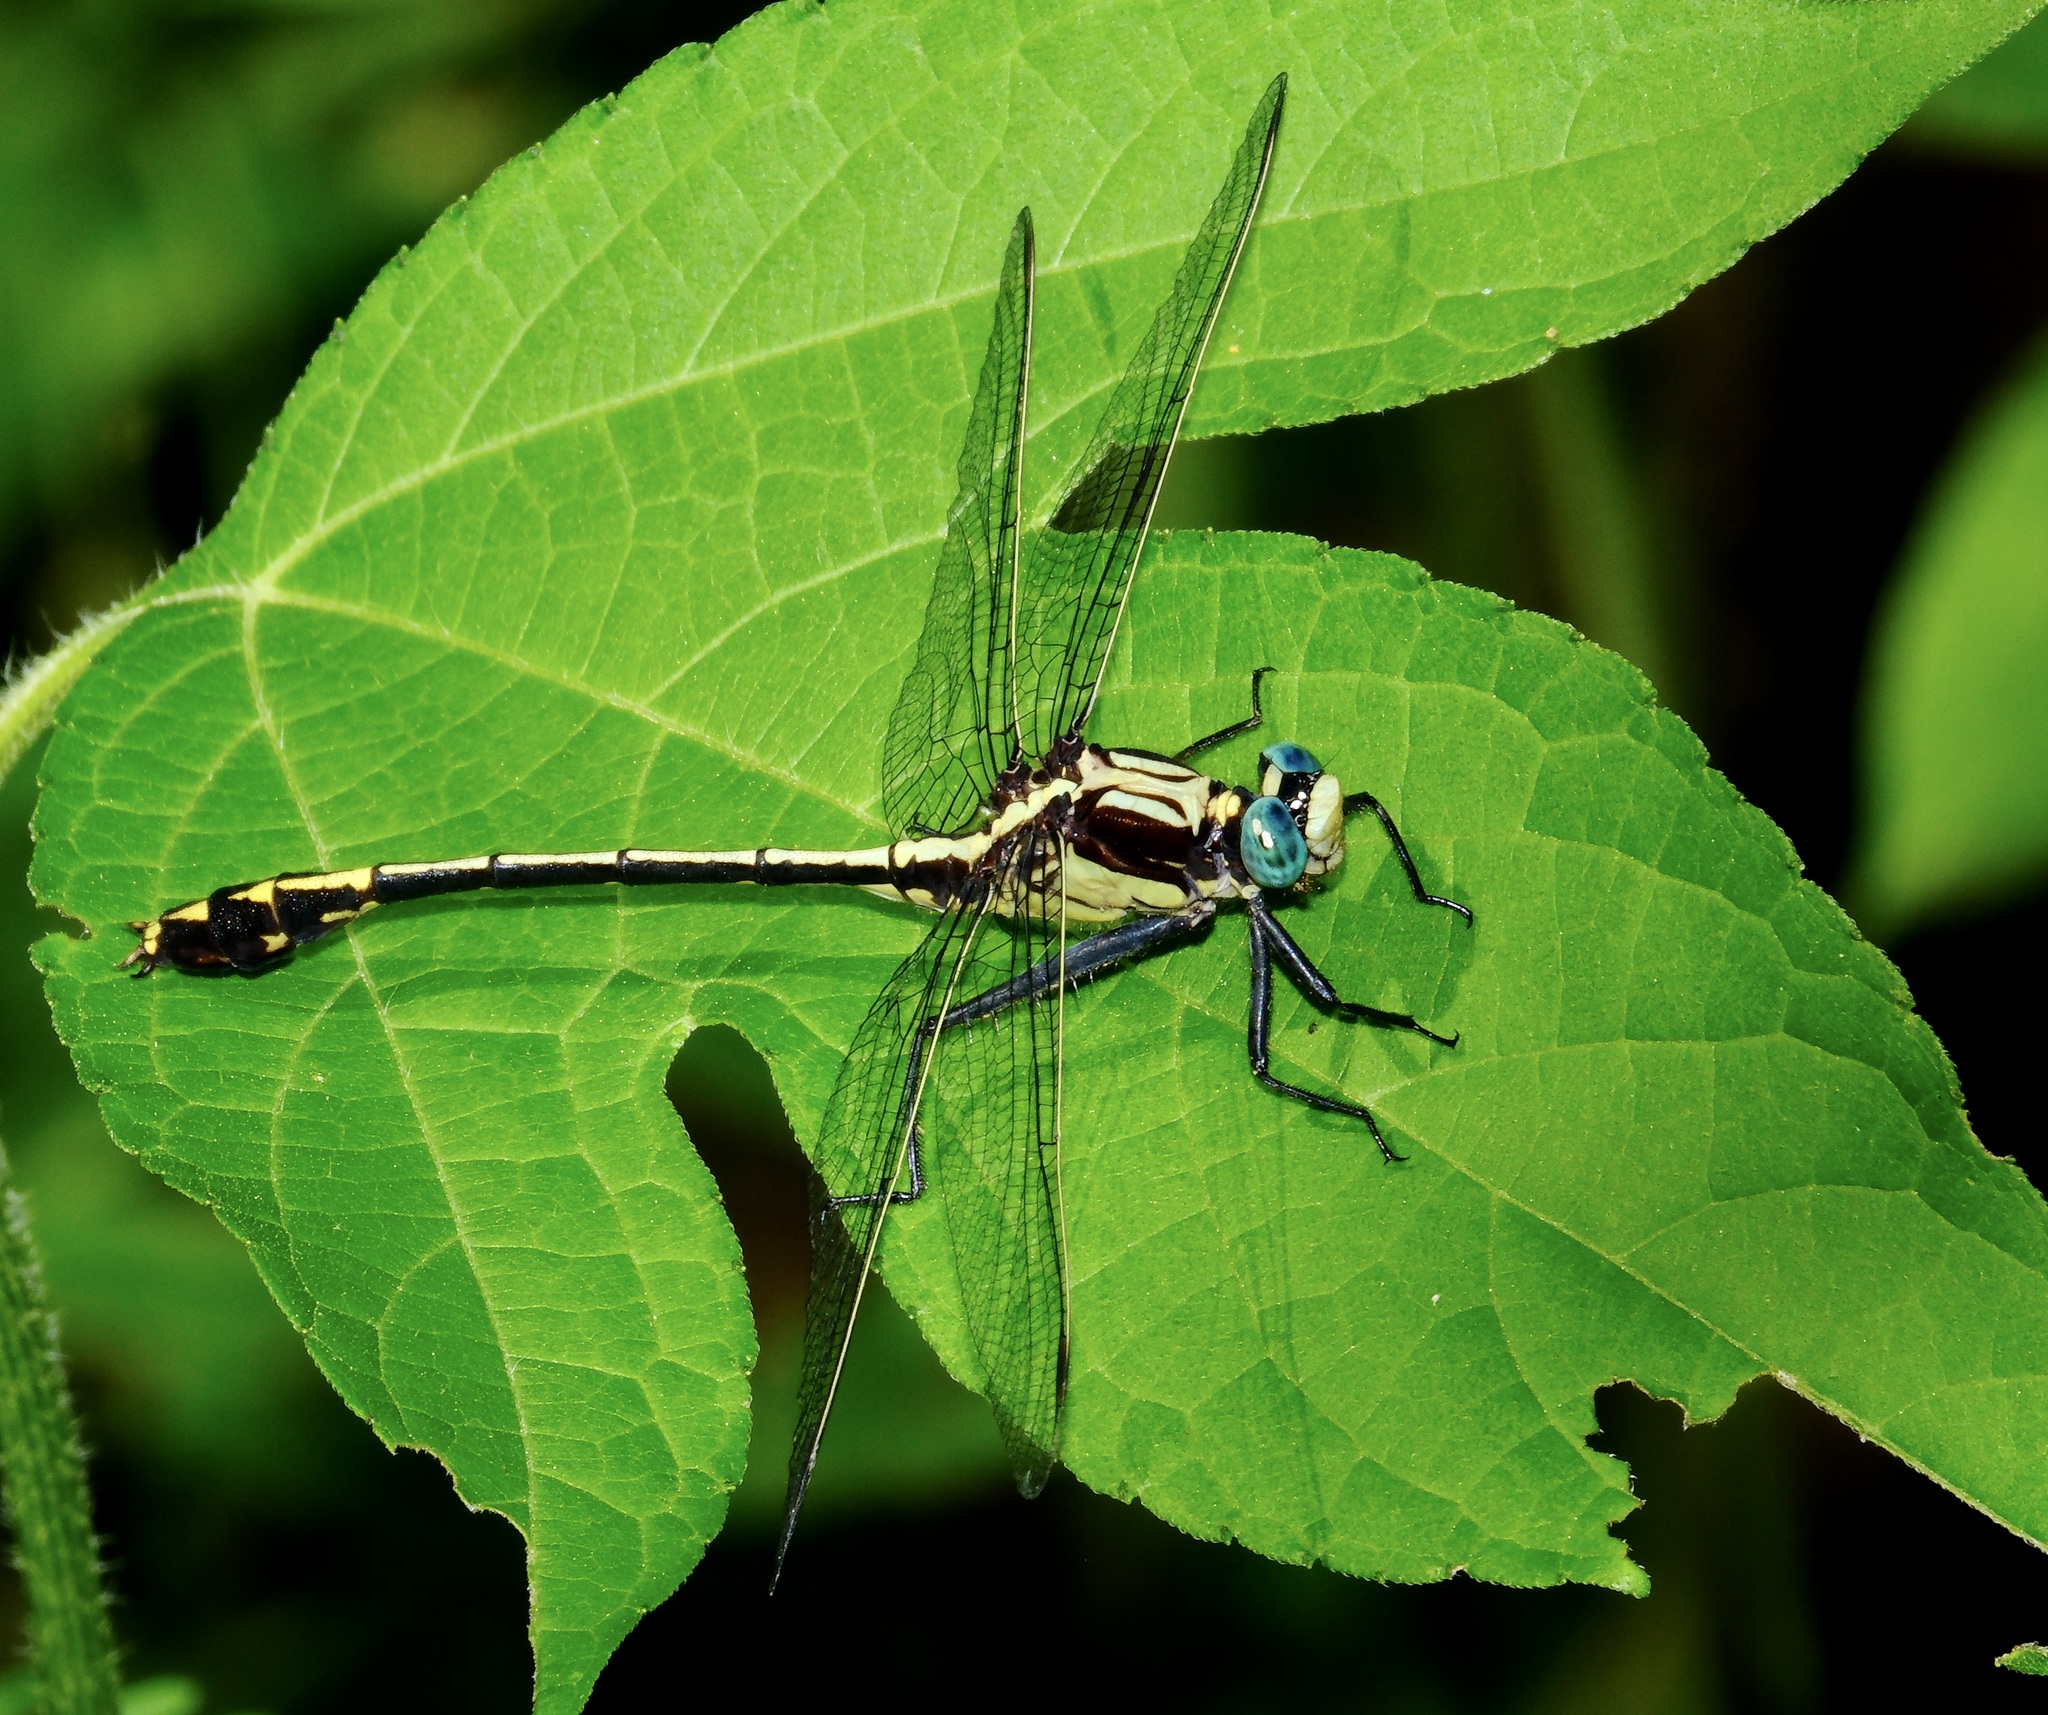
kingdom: Animalia
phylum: Arthropoda
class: Insecta
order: Odonata
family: Gomphidae
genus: Dromogomphus
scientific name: Dromogomphus spinosus
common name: Black-shouldered spinyleg
